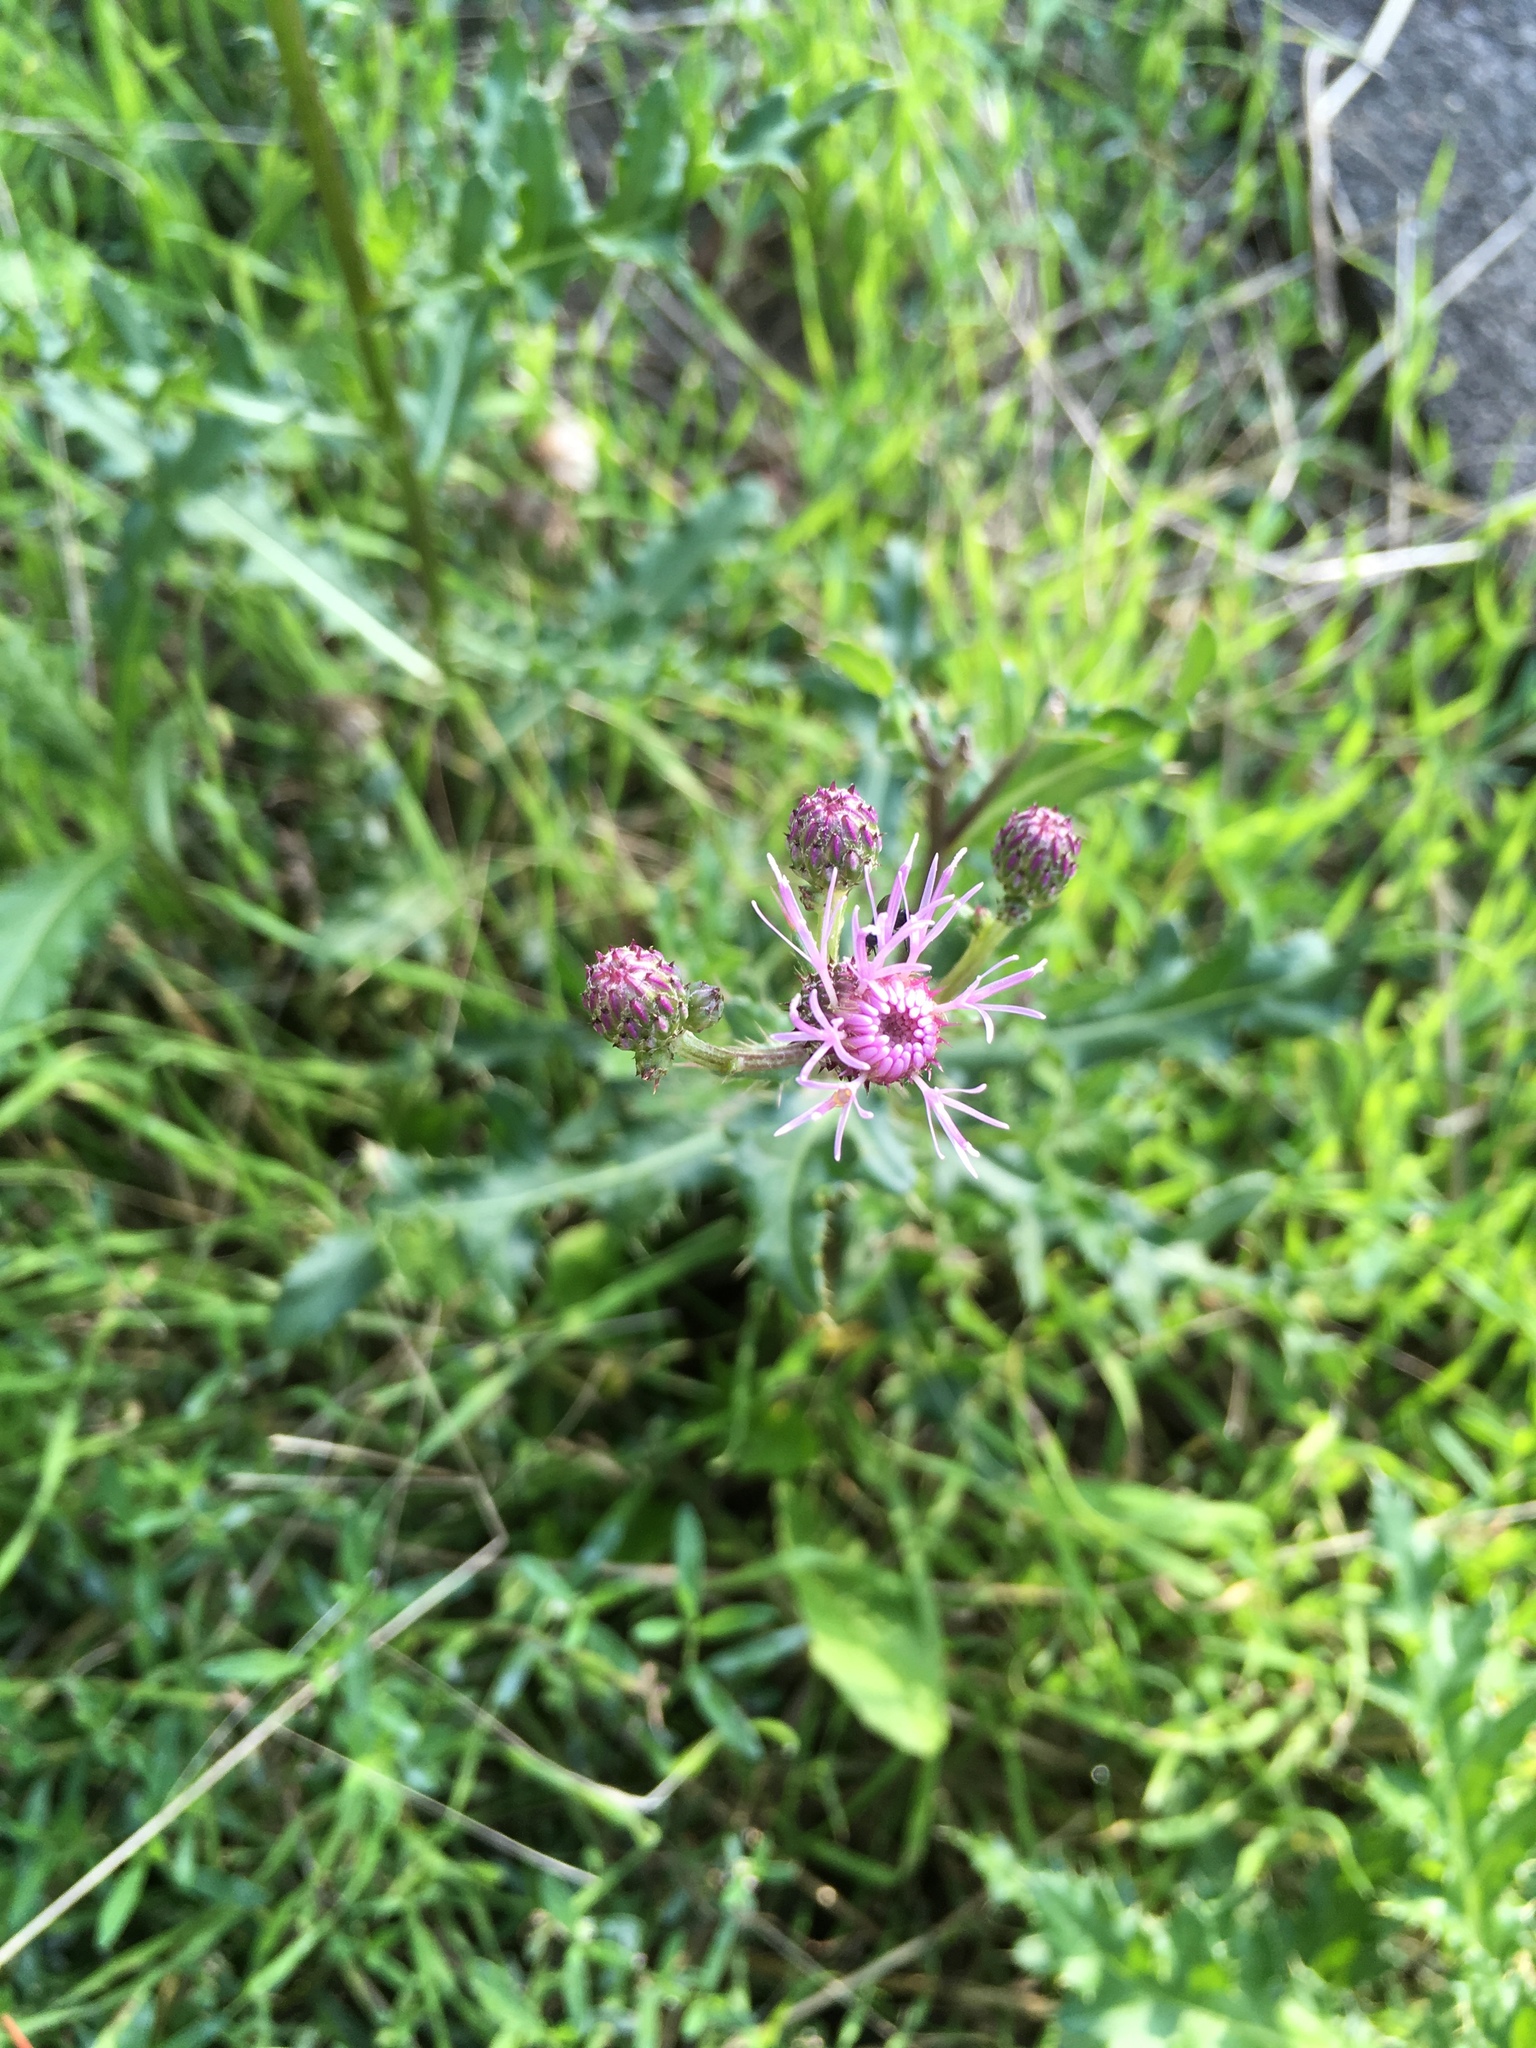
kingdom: Plantae
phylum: Tracheophyta
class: Magnoliopsida
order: Asterales
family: Asteraceae
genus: Cirsium
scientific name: Cirsium arvense
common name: Creeping thistle
